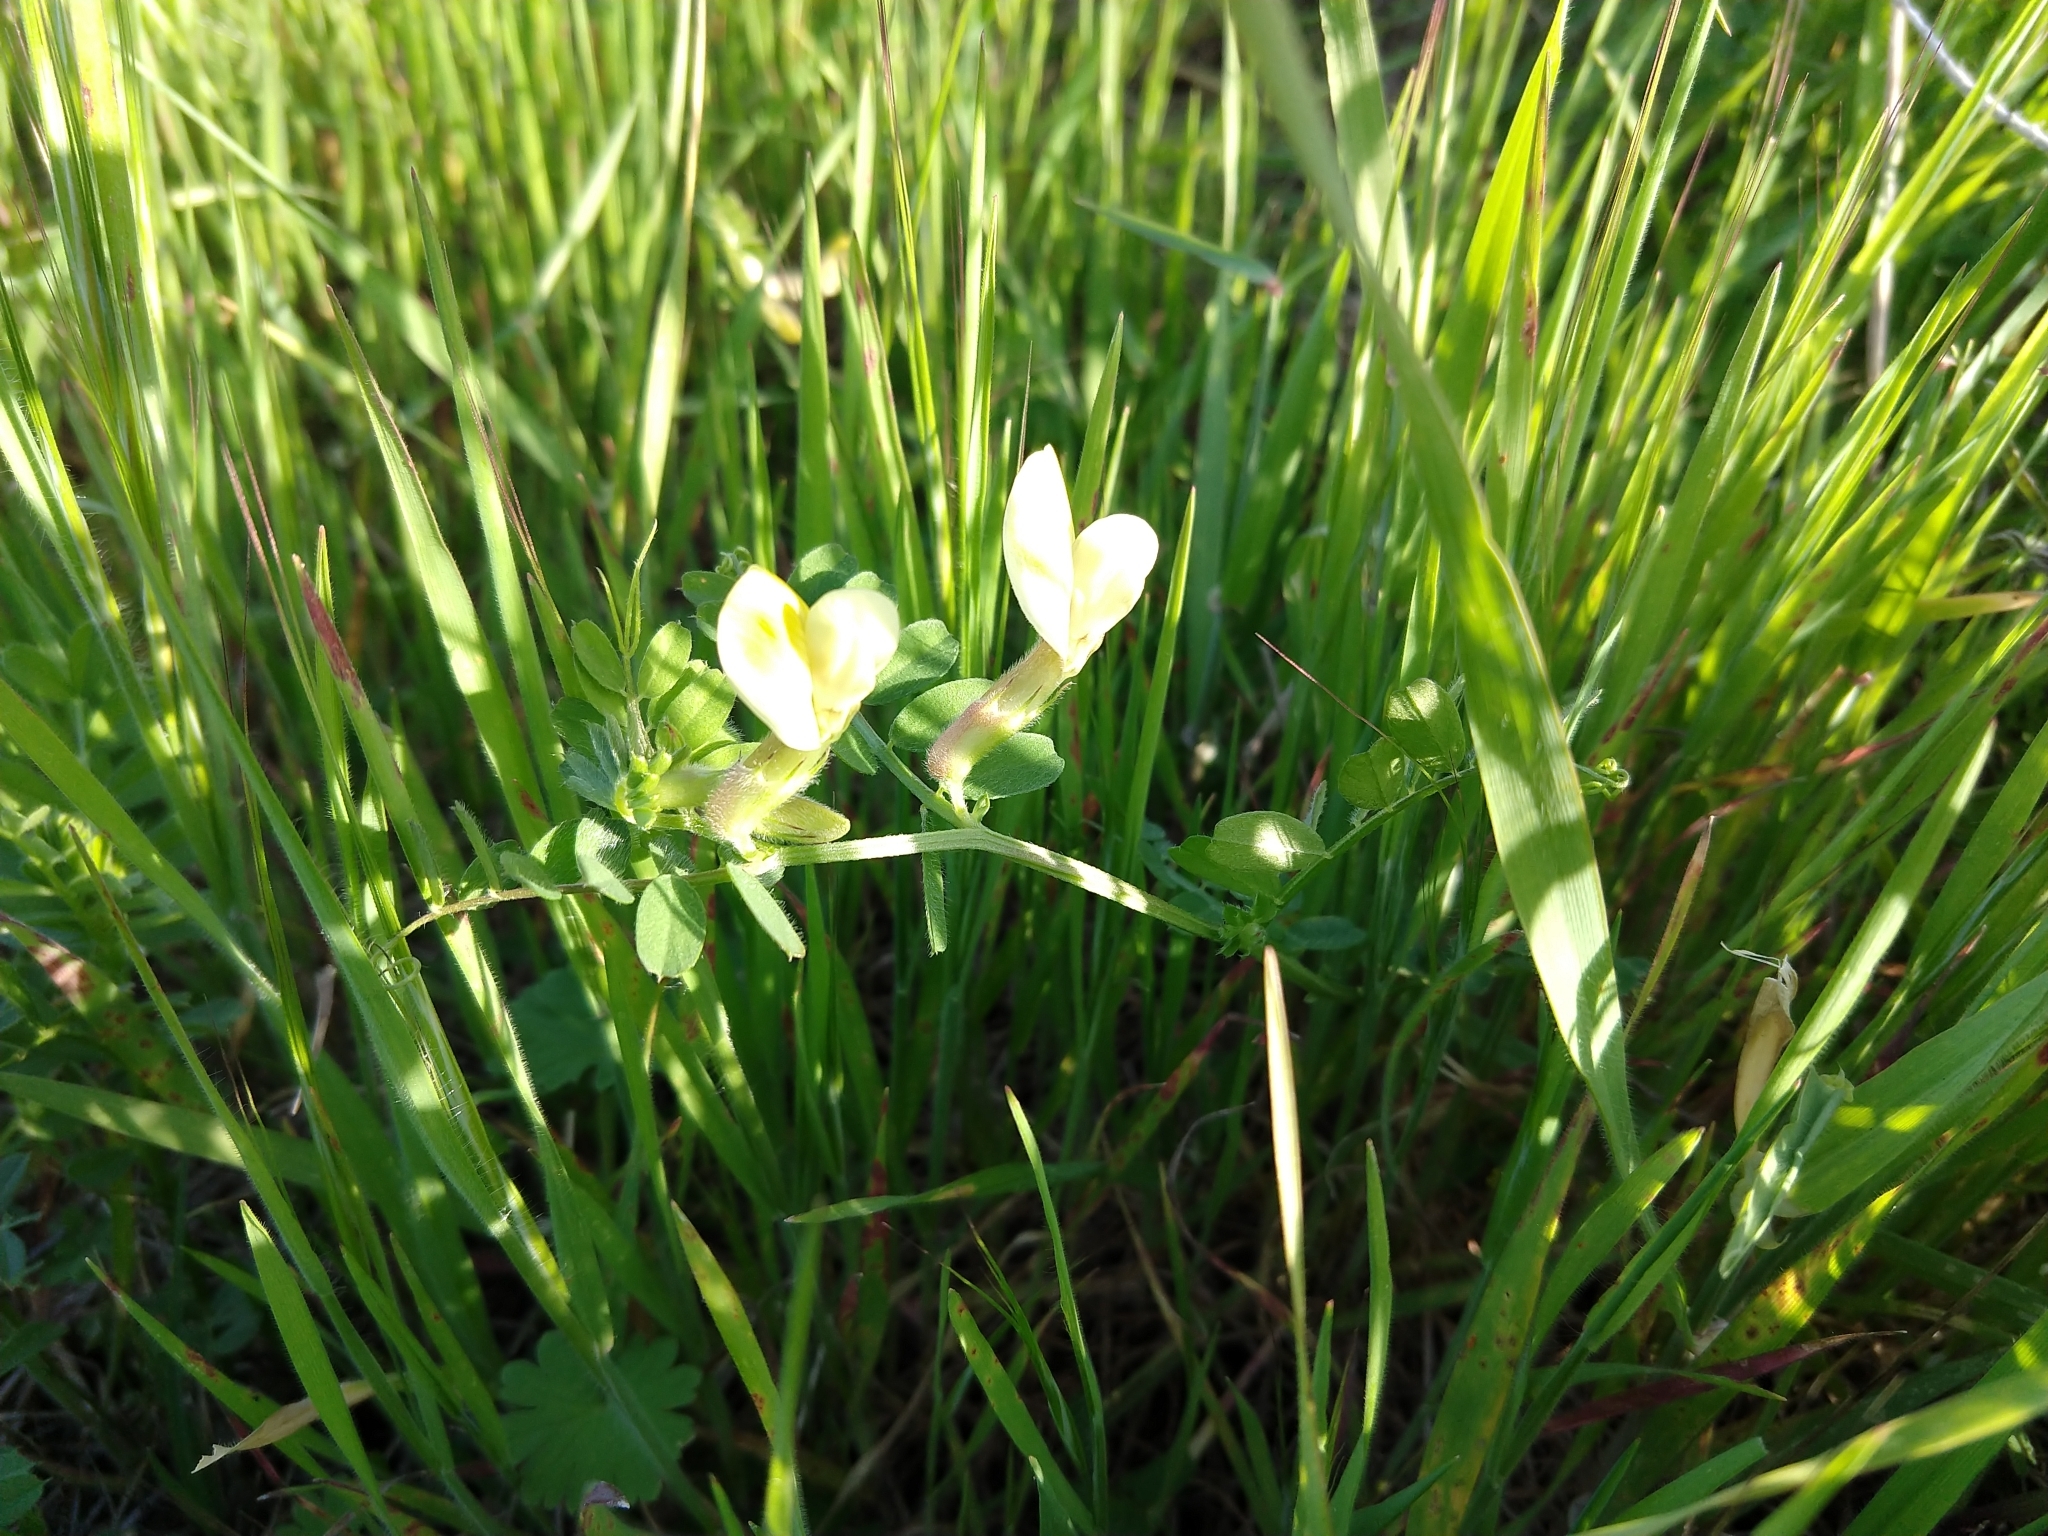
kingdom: Plantae
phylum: Tracheophyta
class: Magnoliopsida
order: Fabales
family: Fabaceae
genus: Vicia
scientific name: Vicia hybrida
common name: Hairy yellow vetch
